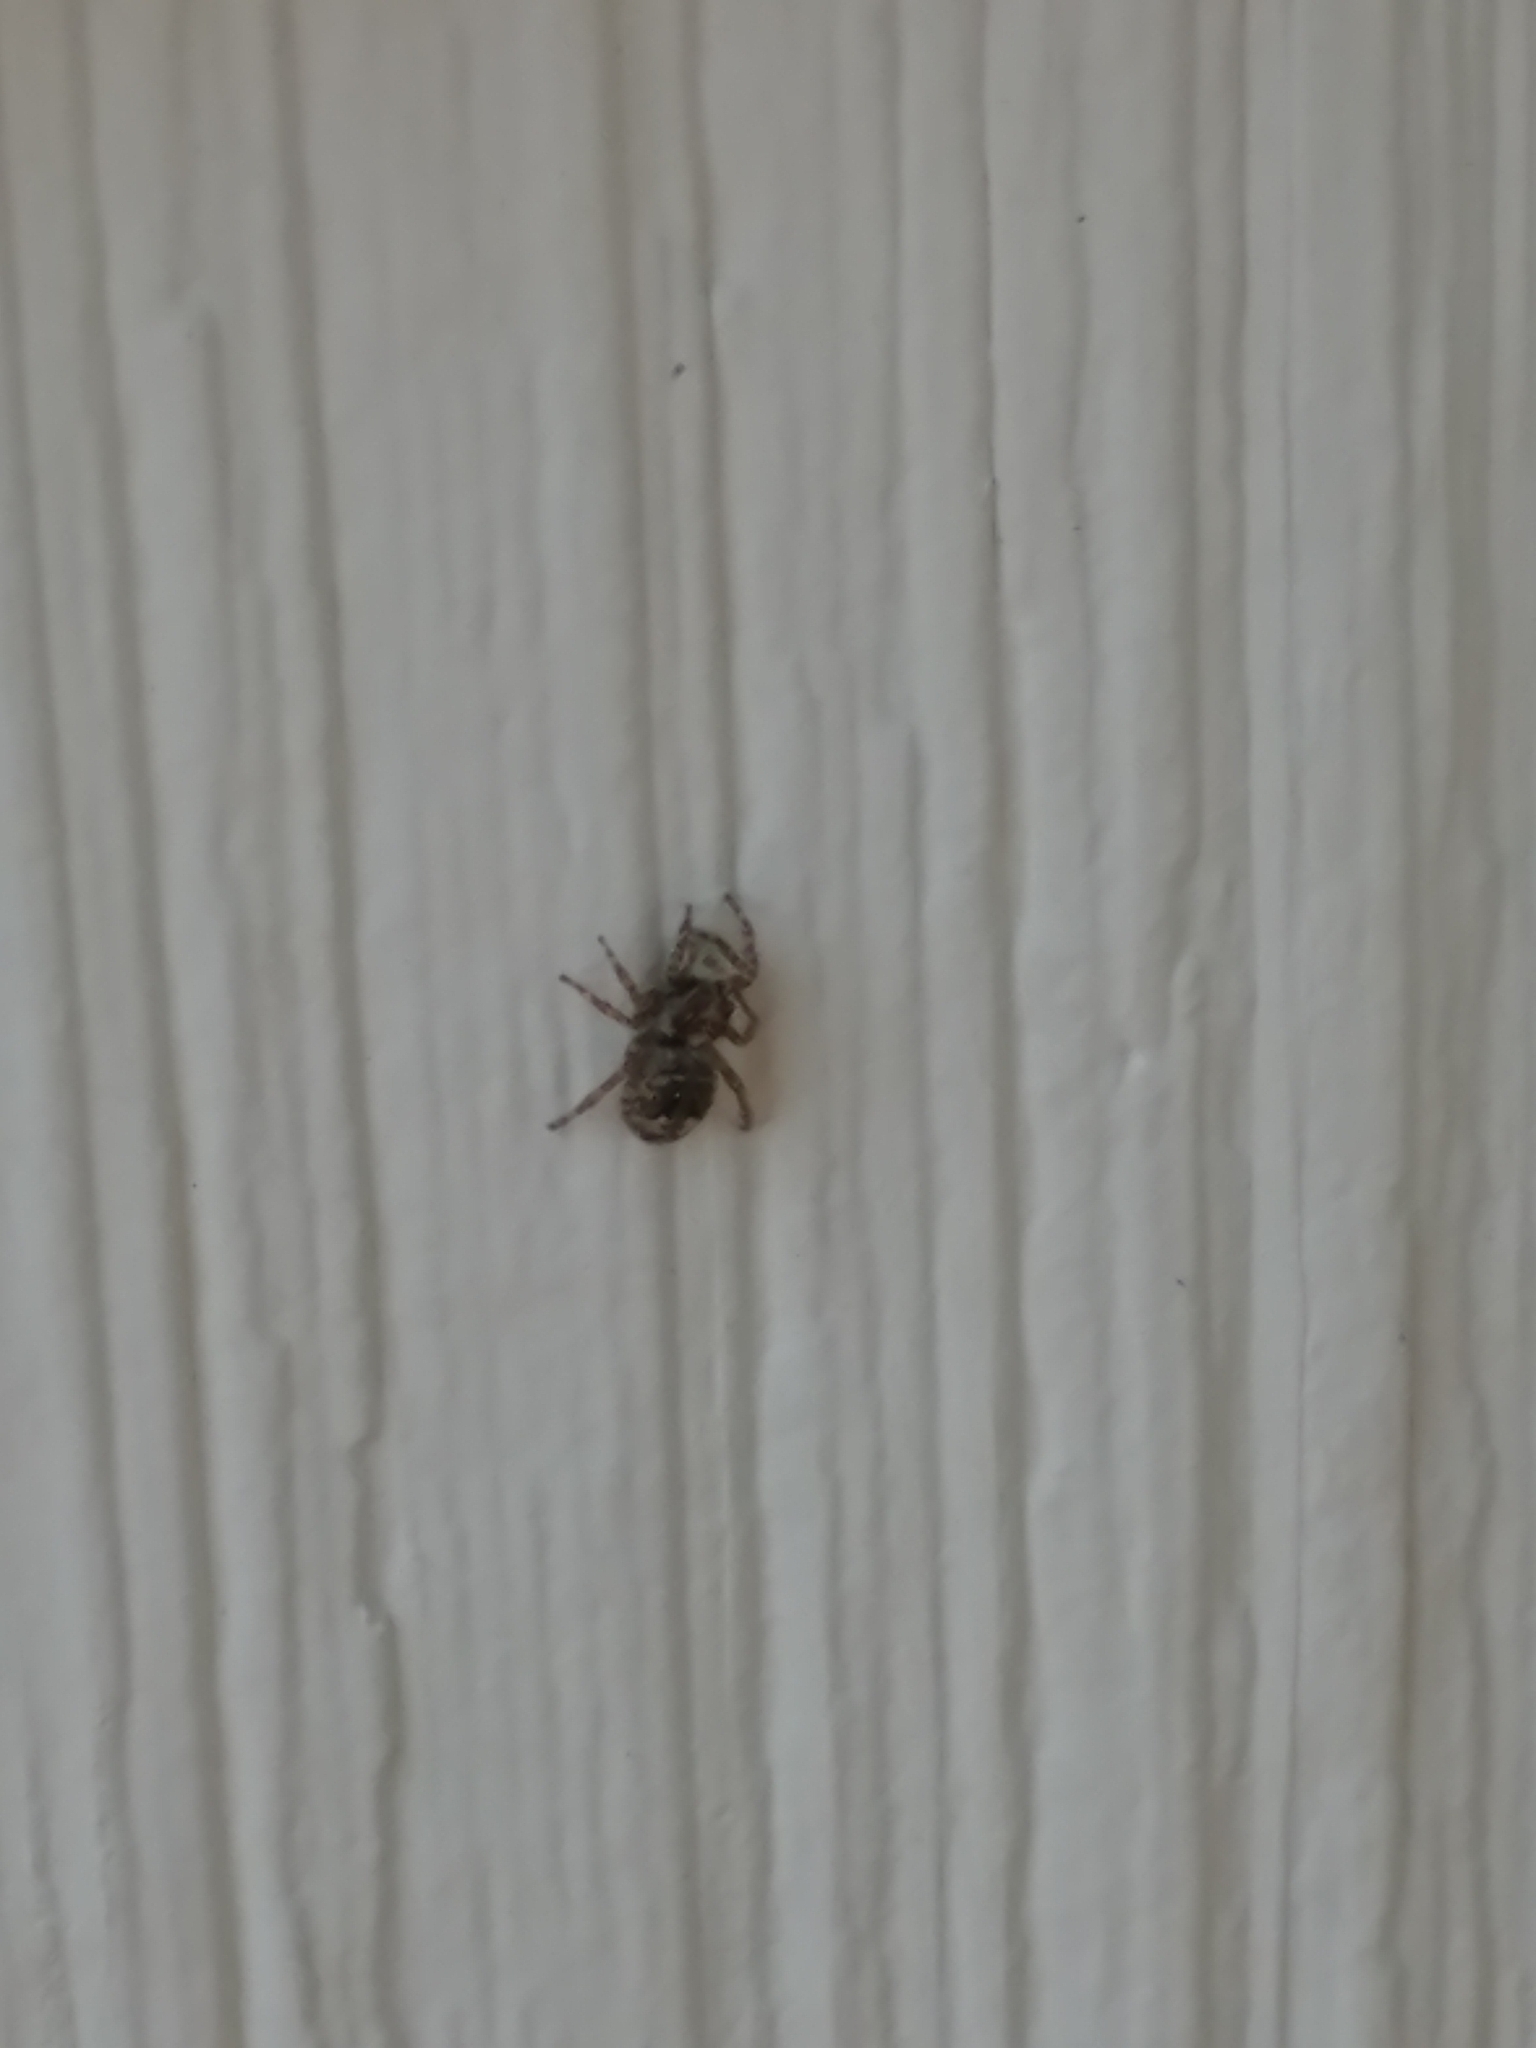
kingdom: Animalia
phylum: Arthropoda
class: Arachnida
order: Araneae
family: Salticidae
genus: Attulus
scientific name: Attulus fasciger
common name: Asiatic wall jumping spider
